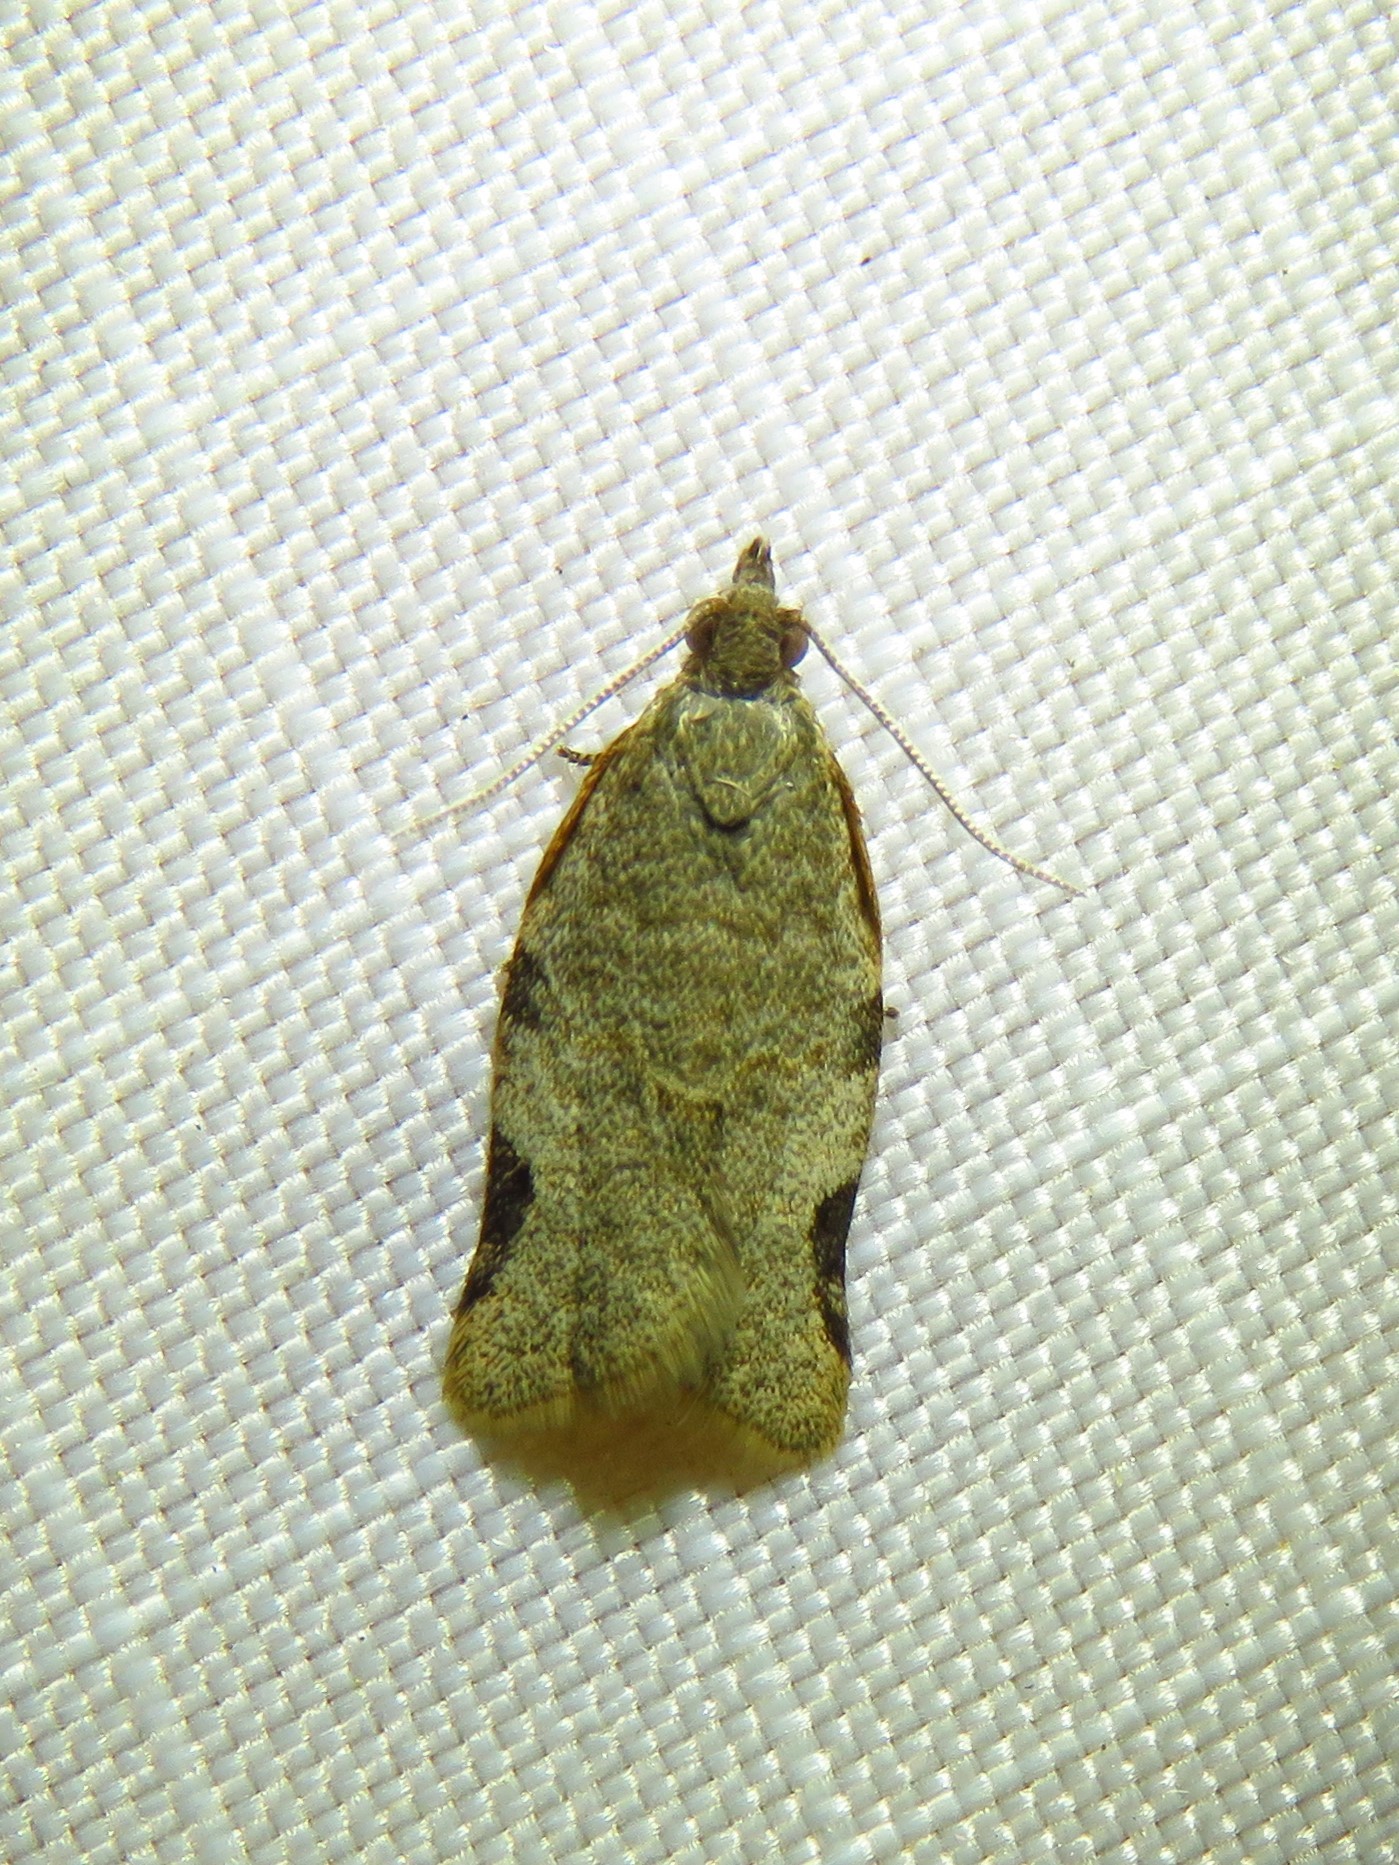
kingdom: Animalia
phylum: Arthropoda
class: Insecta
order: Lepidoptera
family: Tortricidae
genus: Clepsis
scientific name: Clepsis virescana
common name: Greenish apple moth
